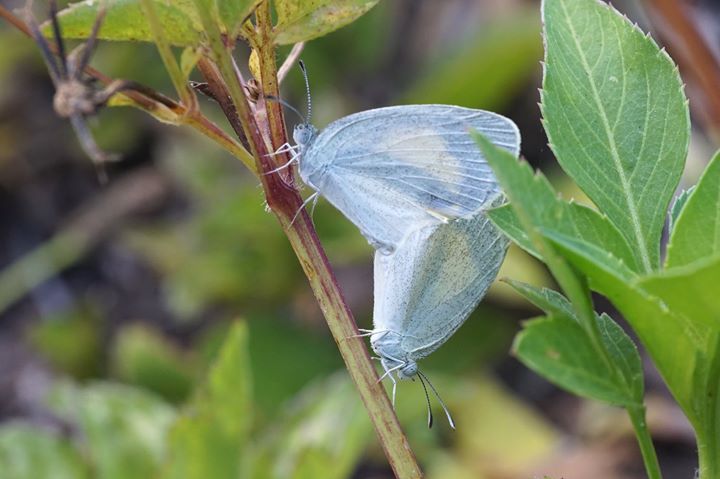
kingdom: Animalia
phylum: Arthropoda
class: Insecta
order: Lepidoptera
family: Pieridae
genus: Eurema
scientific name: Eurema daira
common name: Barred sulphur
